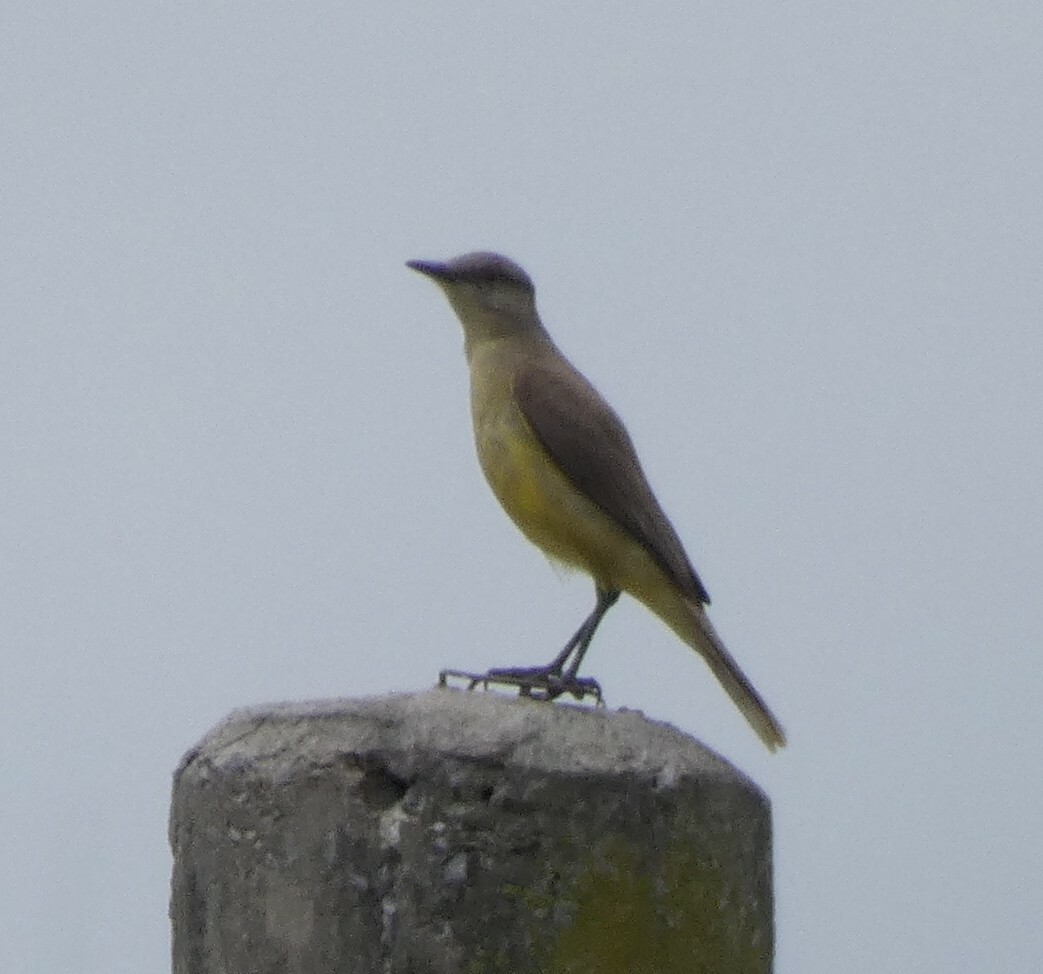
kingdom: Animalia
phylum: Chordata
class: Aves
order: Passeriformes
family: Tyrannidae
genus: Machetornis
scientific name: Machetornis rixosa
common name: Cattle tyrant
